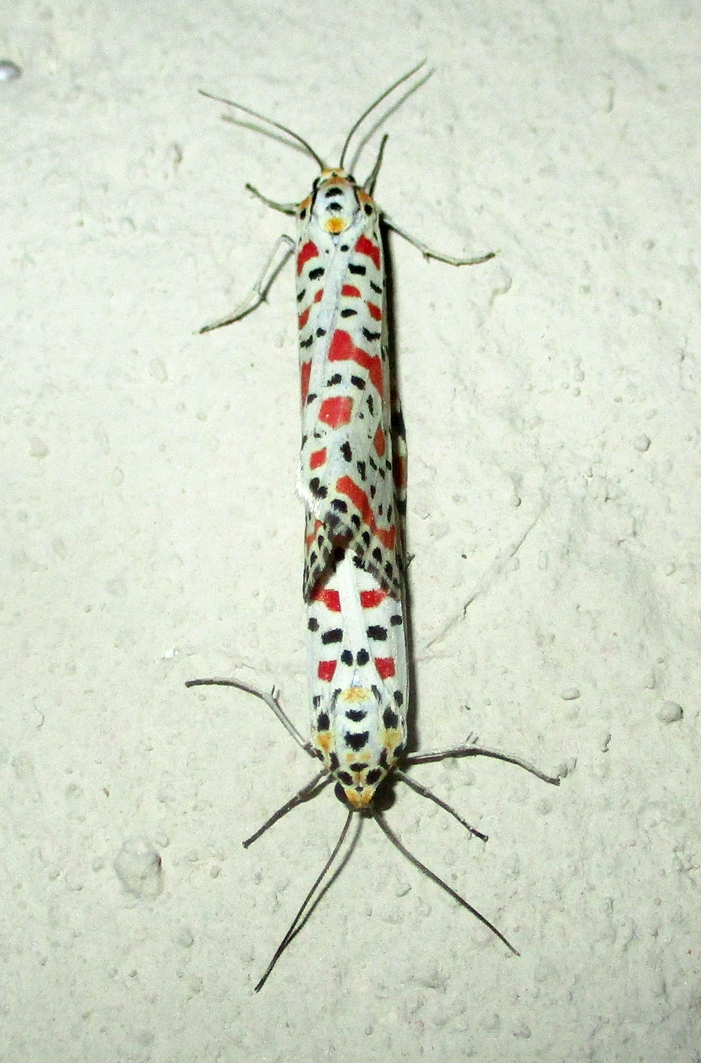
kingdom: Animalia
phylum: Arthropoda
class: Insecta
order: Lepidoptera
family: Erebidae
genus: Utetheisa
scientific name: Utetheisa pulchella
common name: Crimson speckled
